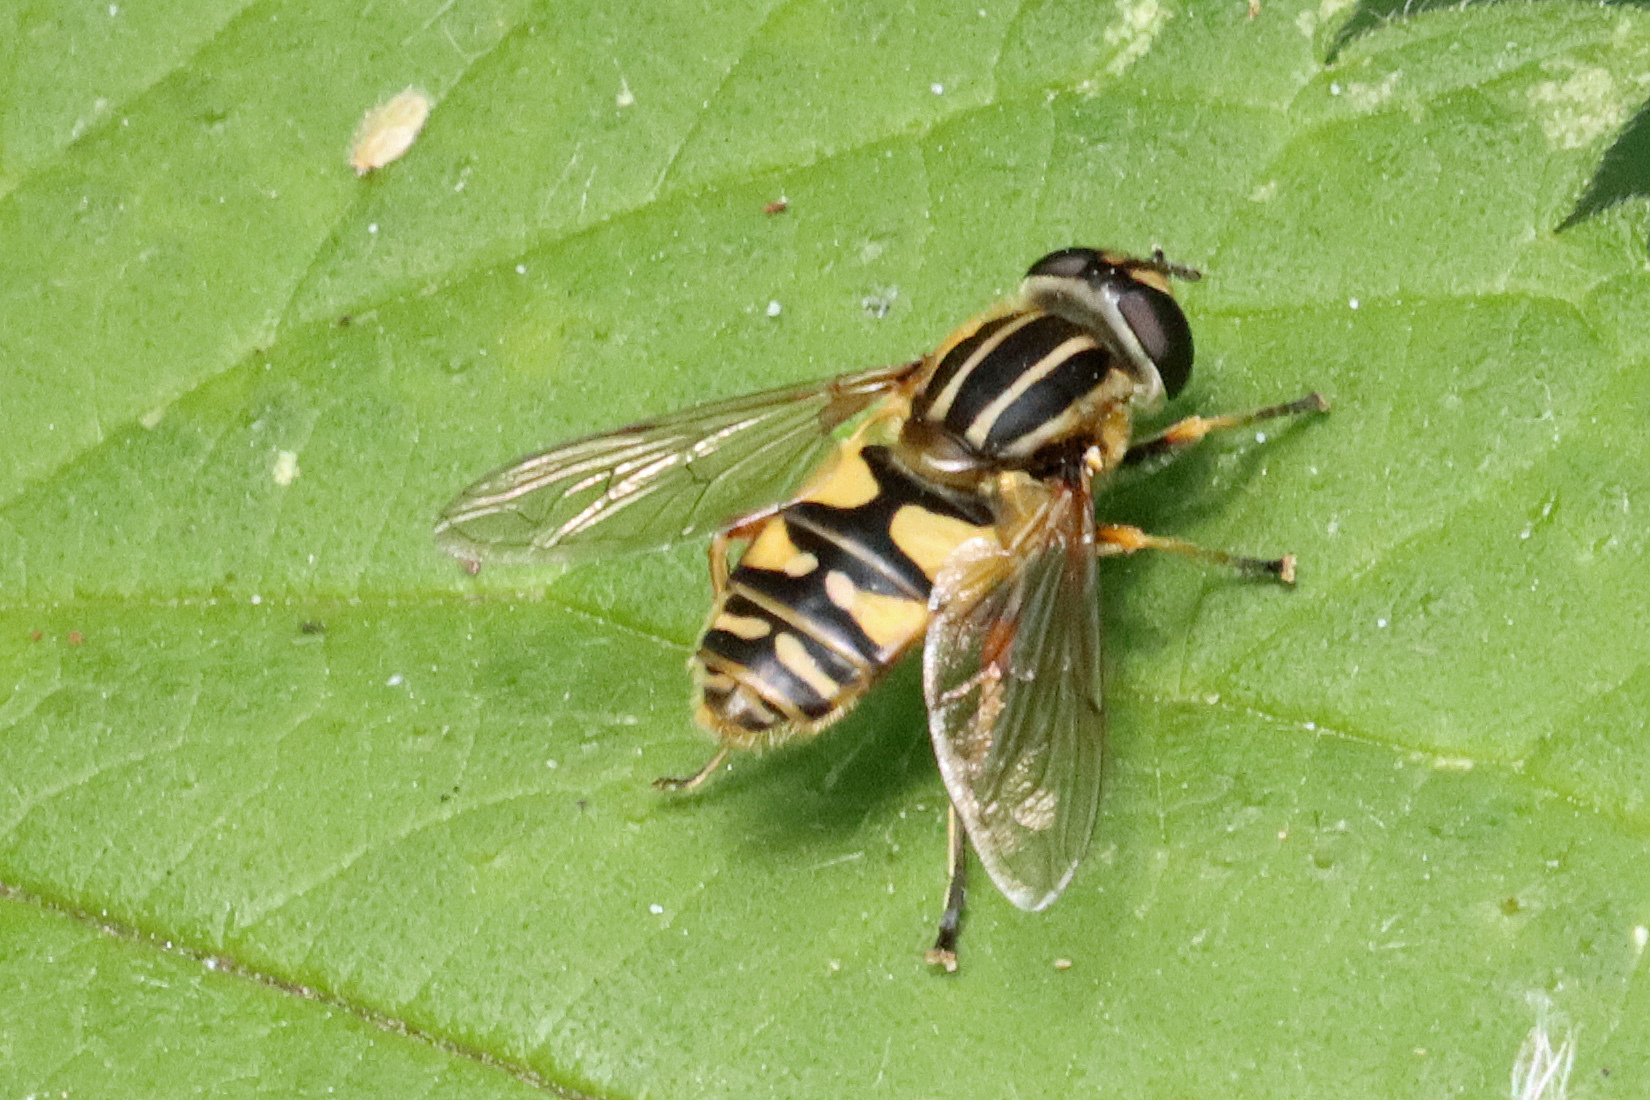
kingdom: Animalia
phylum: Arthropoda
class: Insecta
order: Diptera
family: Syrphidae
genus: Helophilus
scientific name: Helophilus pendulus
